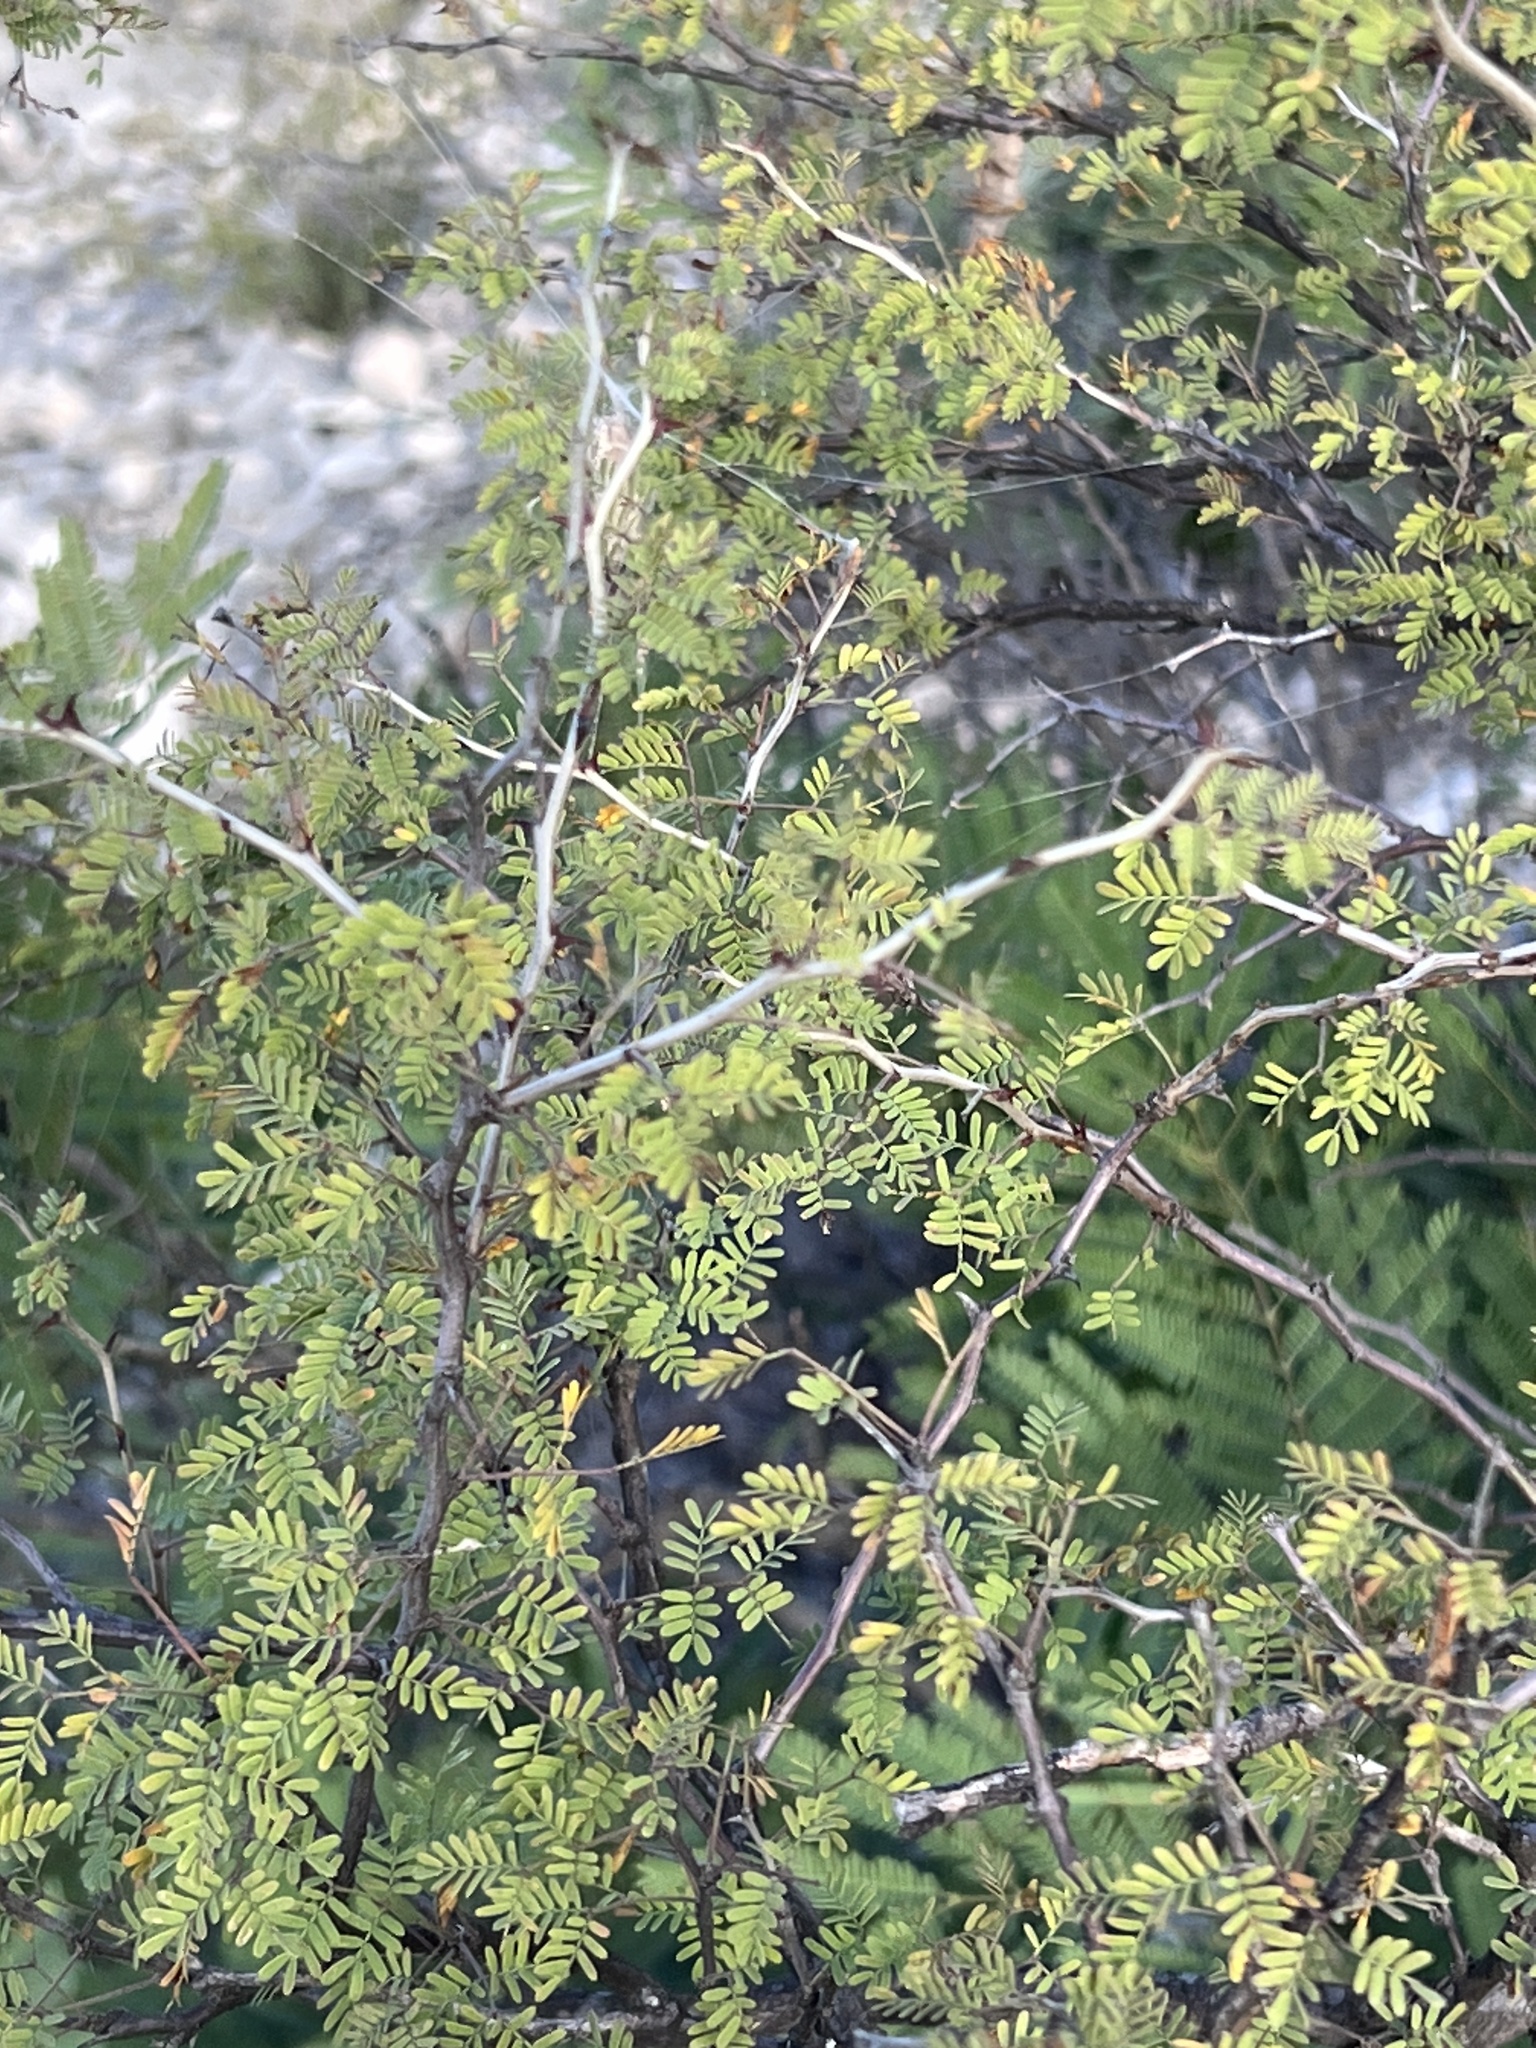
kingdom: Plantae
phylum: Tracheophyta
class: Magnoliopsida
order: Fabales
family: Fabaceae
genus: Mimosa
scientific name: Mimosa texana
